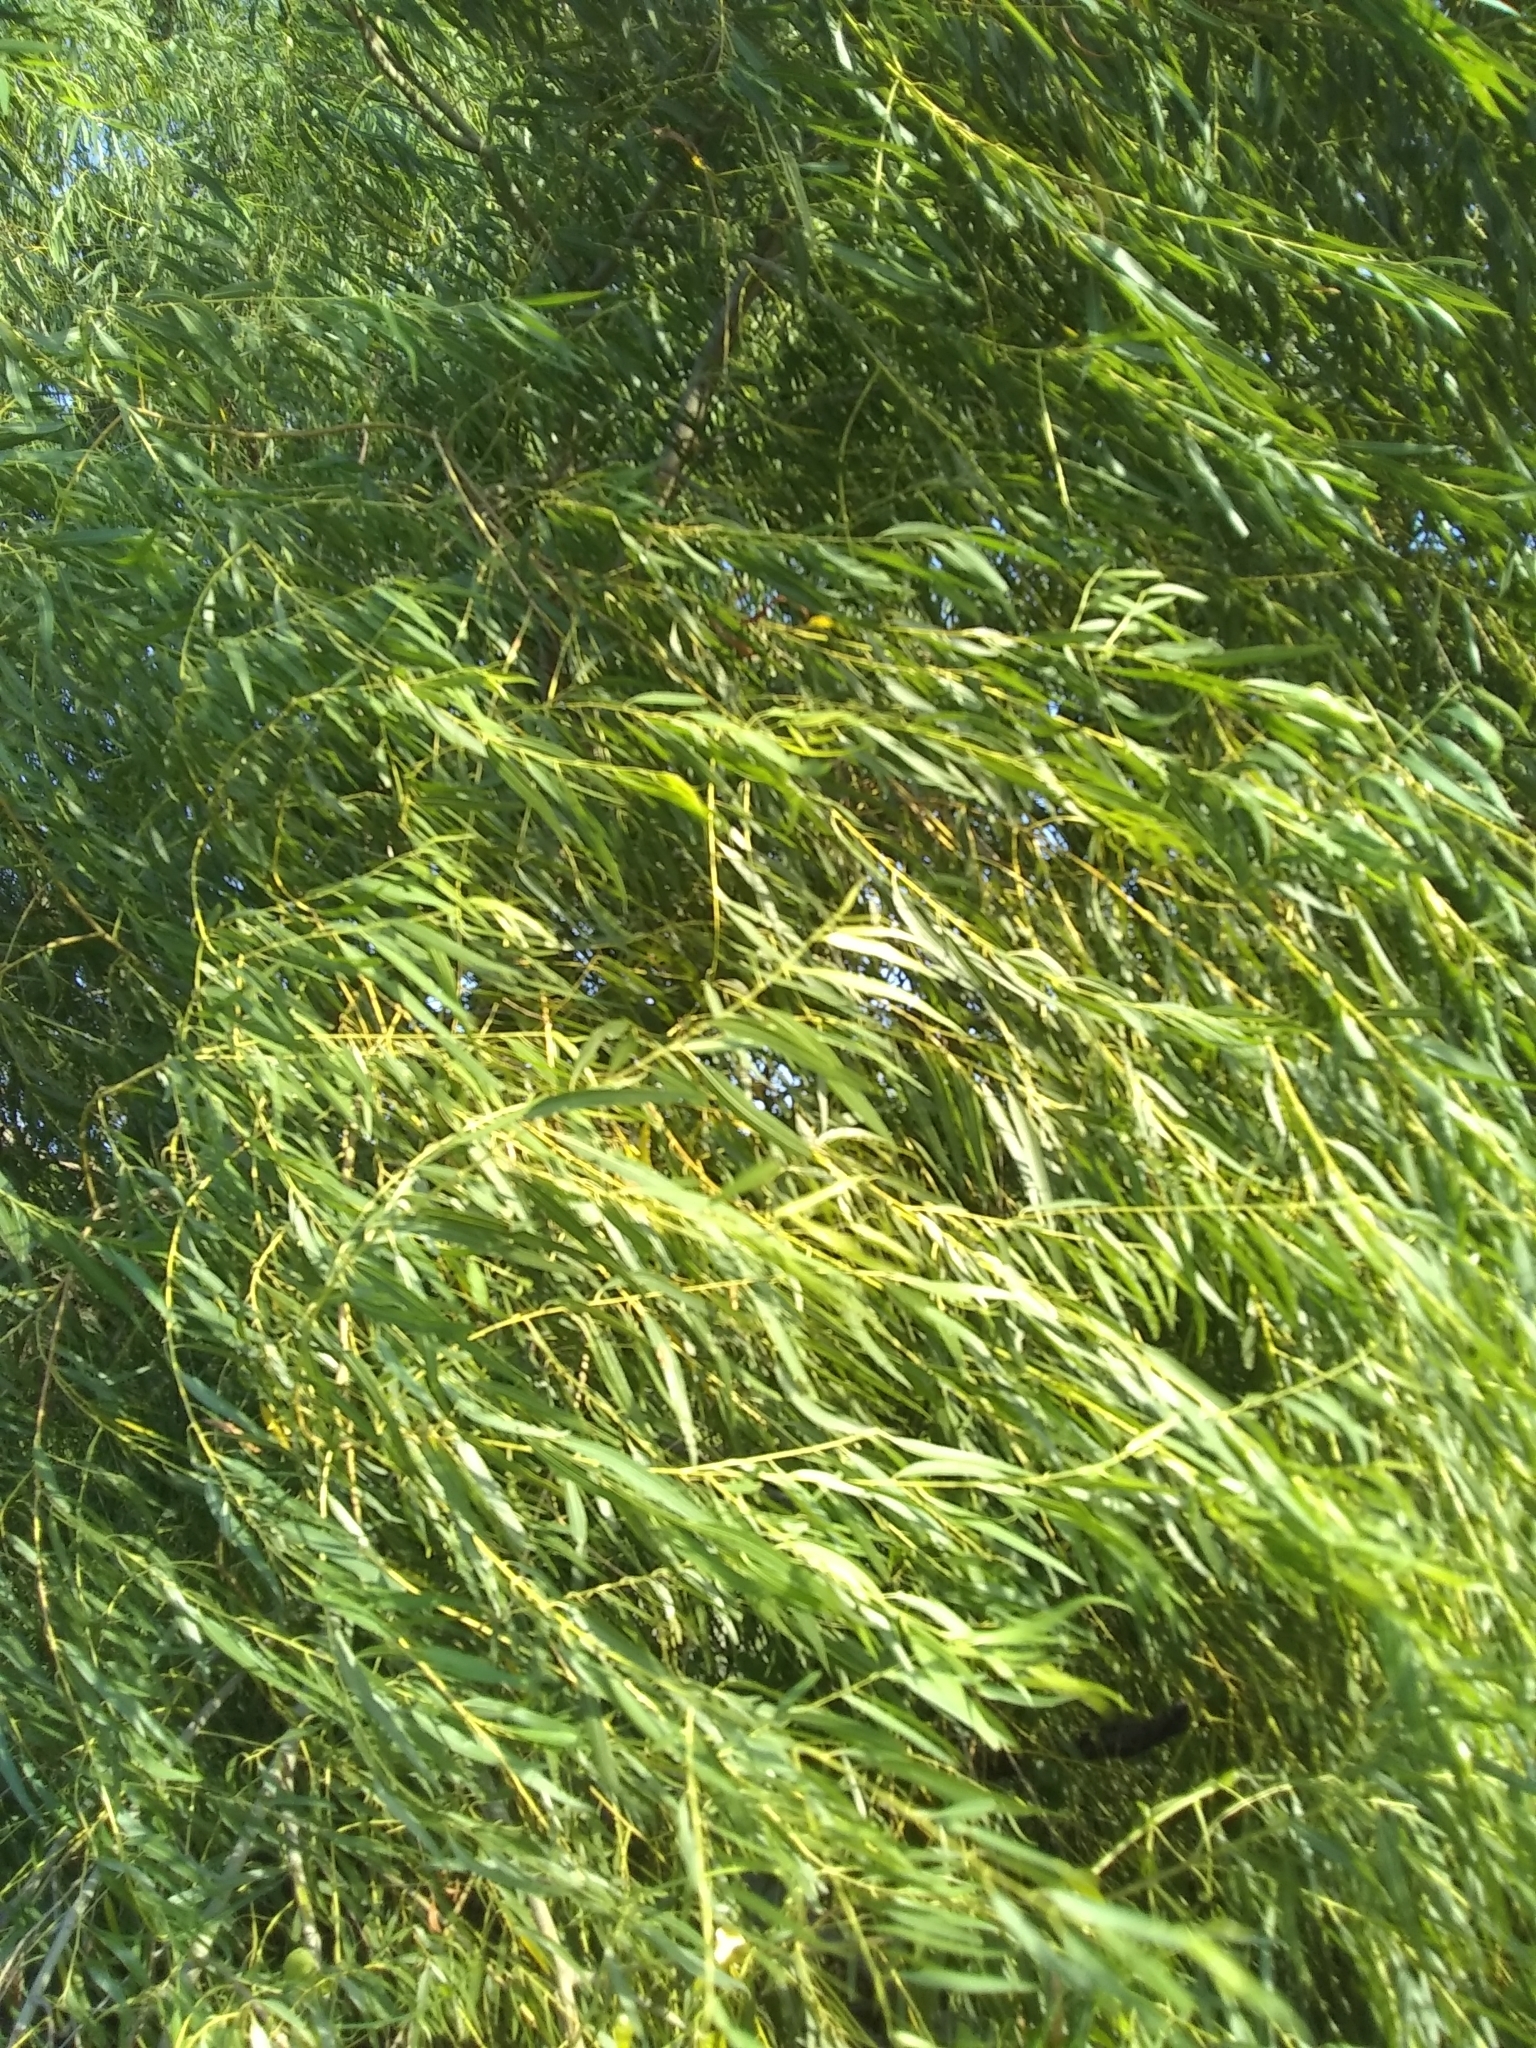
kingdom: Plantae
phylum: Tracheophyta
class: Magnoliopsida
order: Malpighiales
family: Salicaceae
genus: Salix
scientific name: Salix nigra
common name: Black willow
